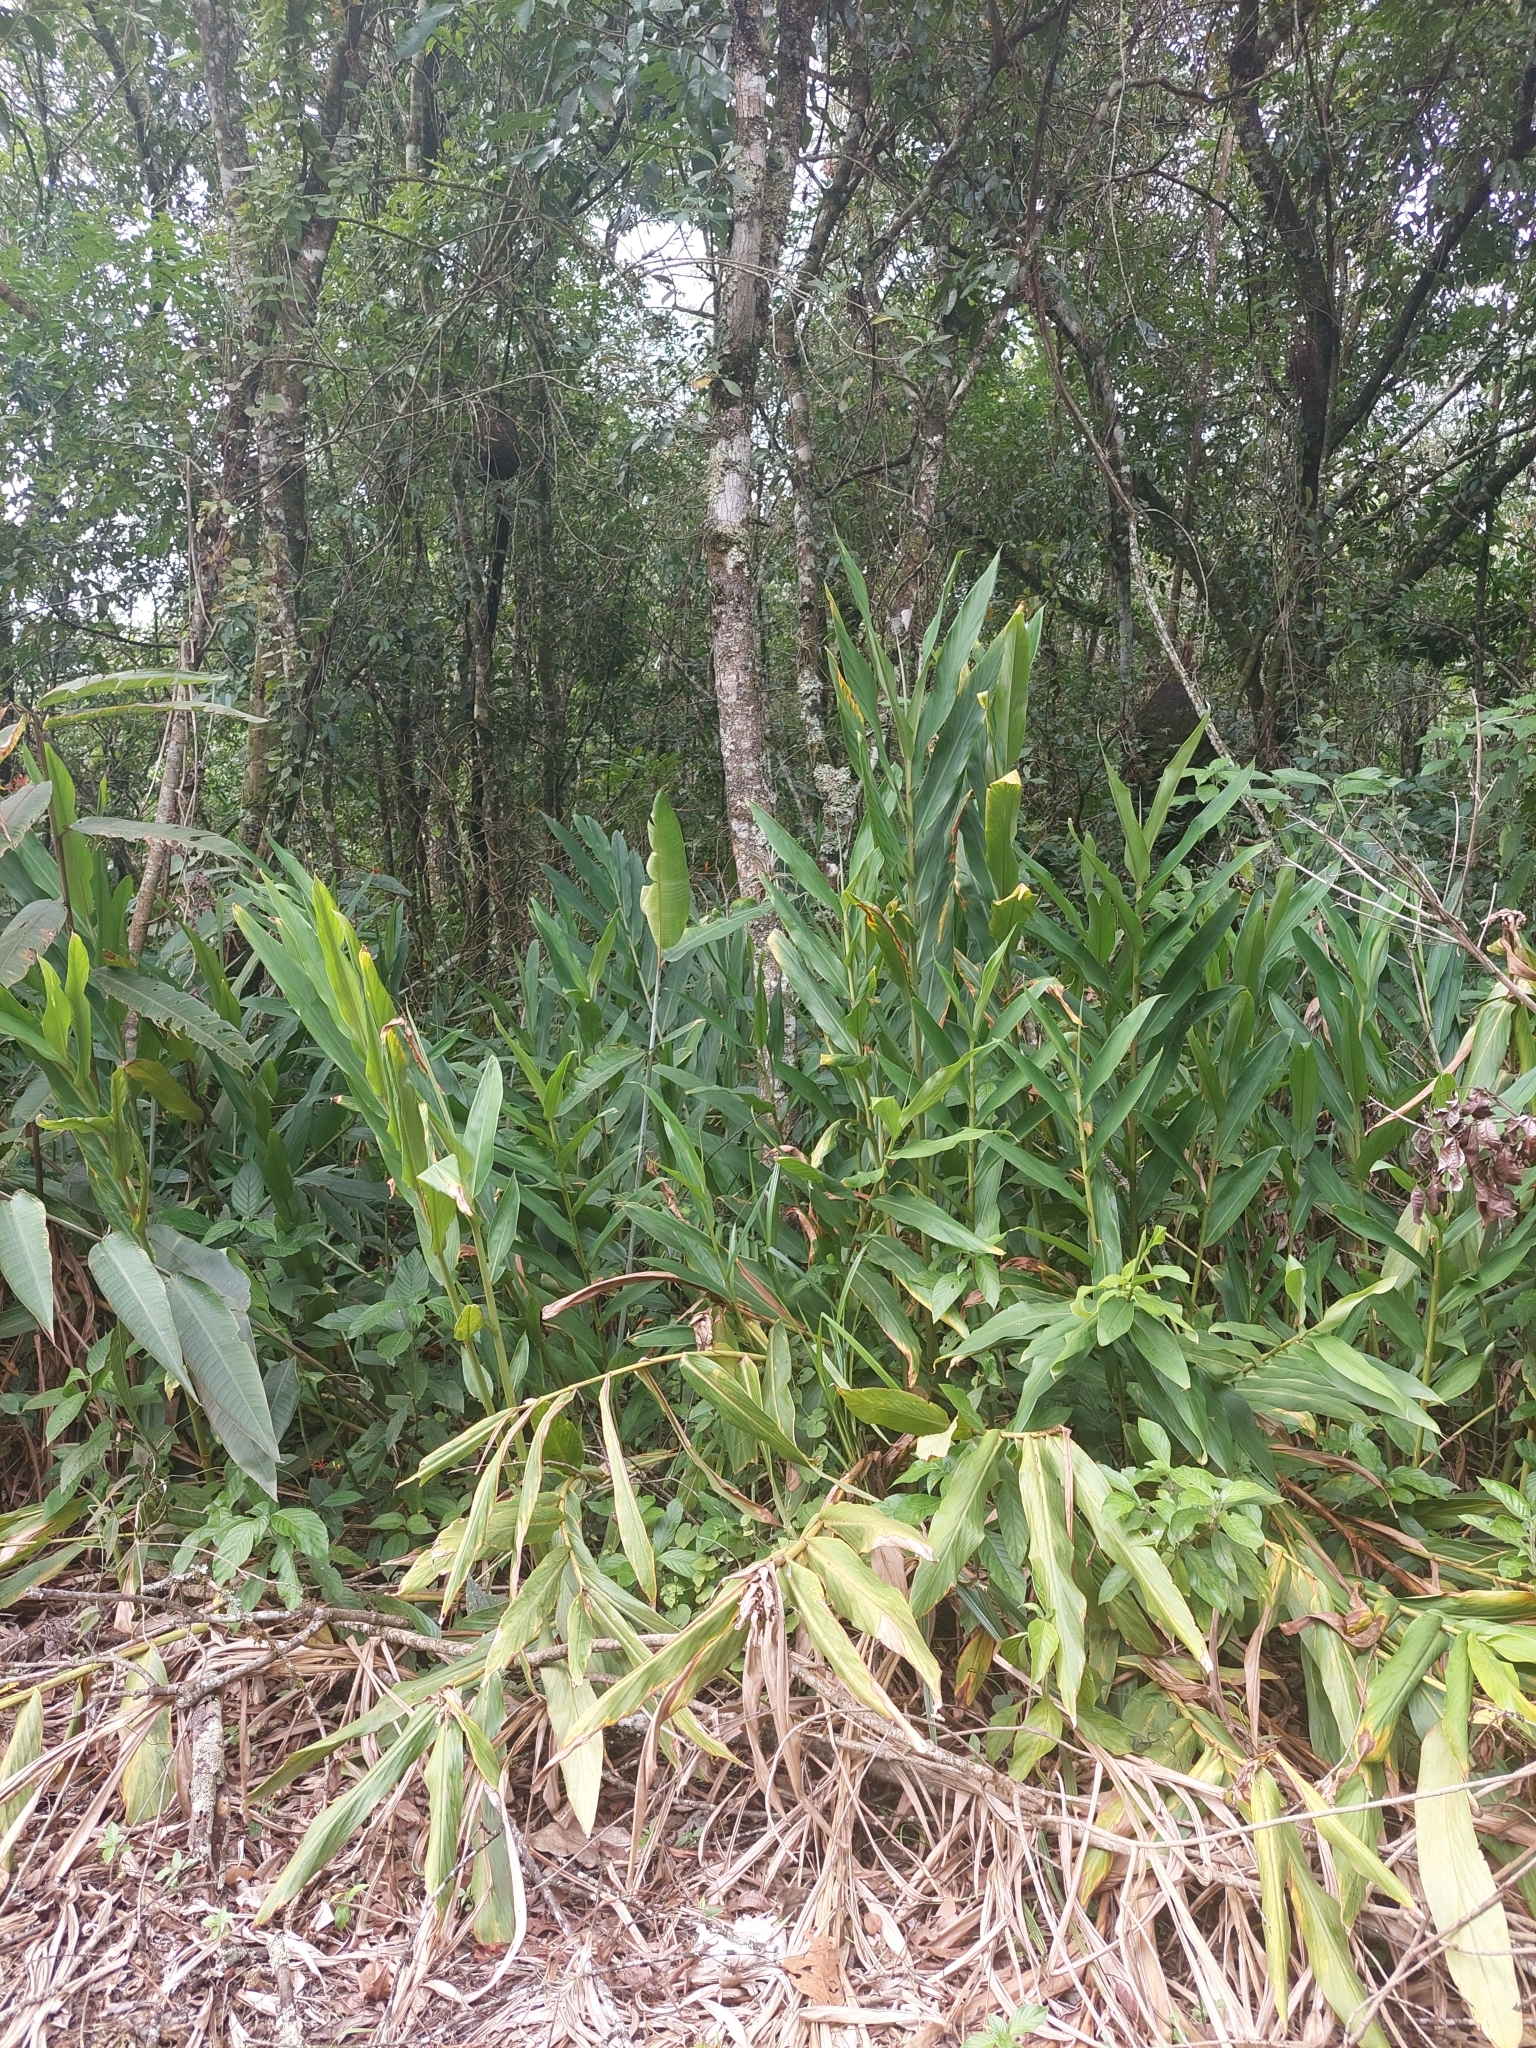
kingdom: Plantae
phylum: Tracheophyta
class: Liliopsida
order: Zingiberales
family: Zingiberaceae
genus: Hedychium
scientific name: Hedychium coronarium
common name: White garland-lily
